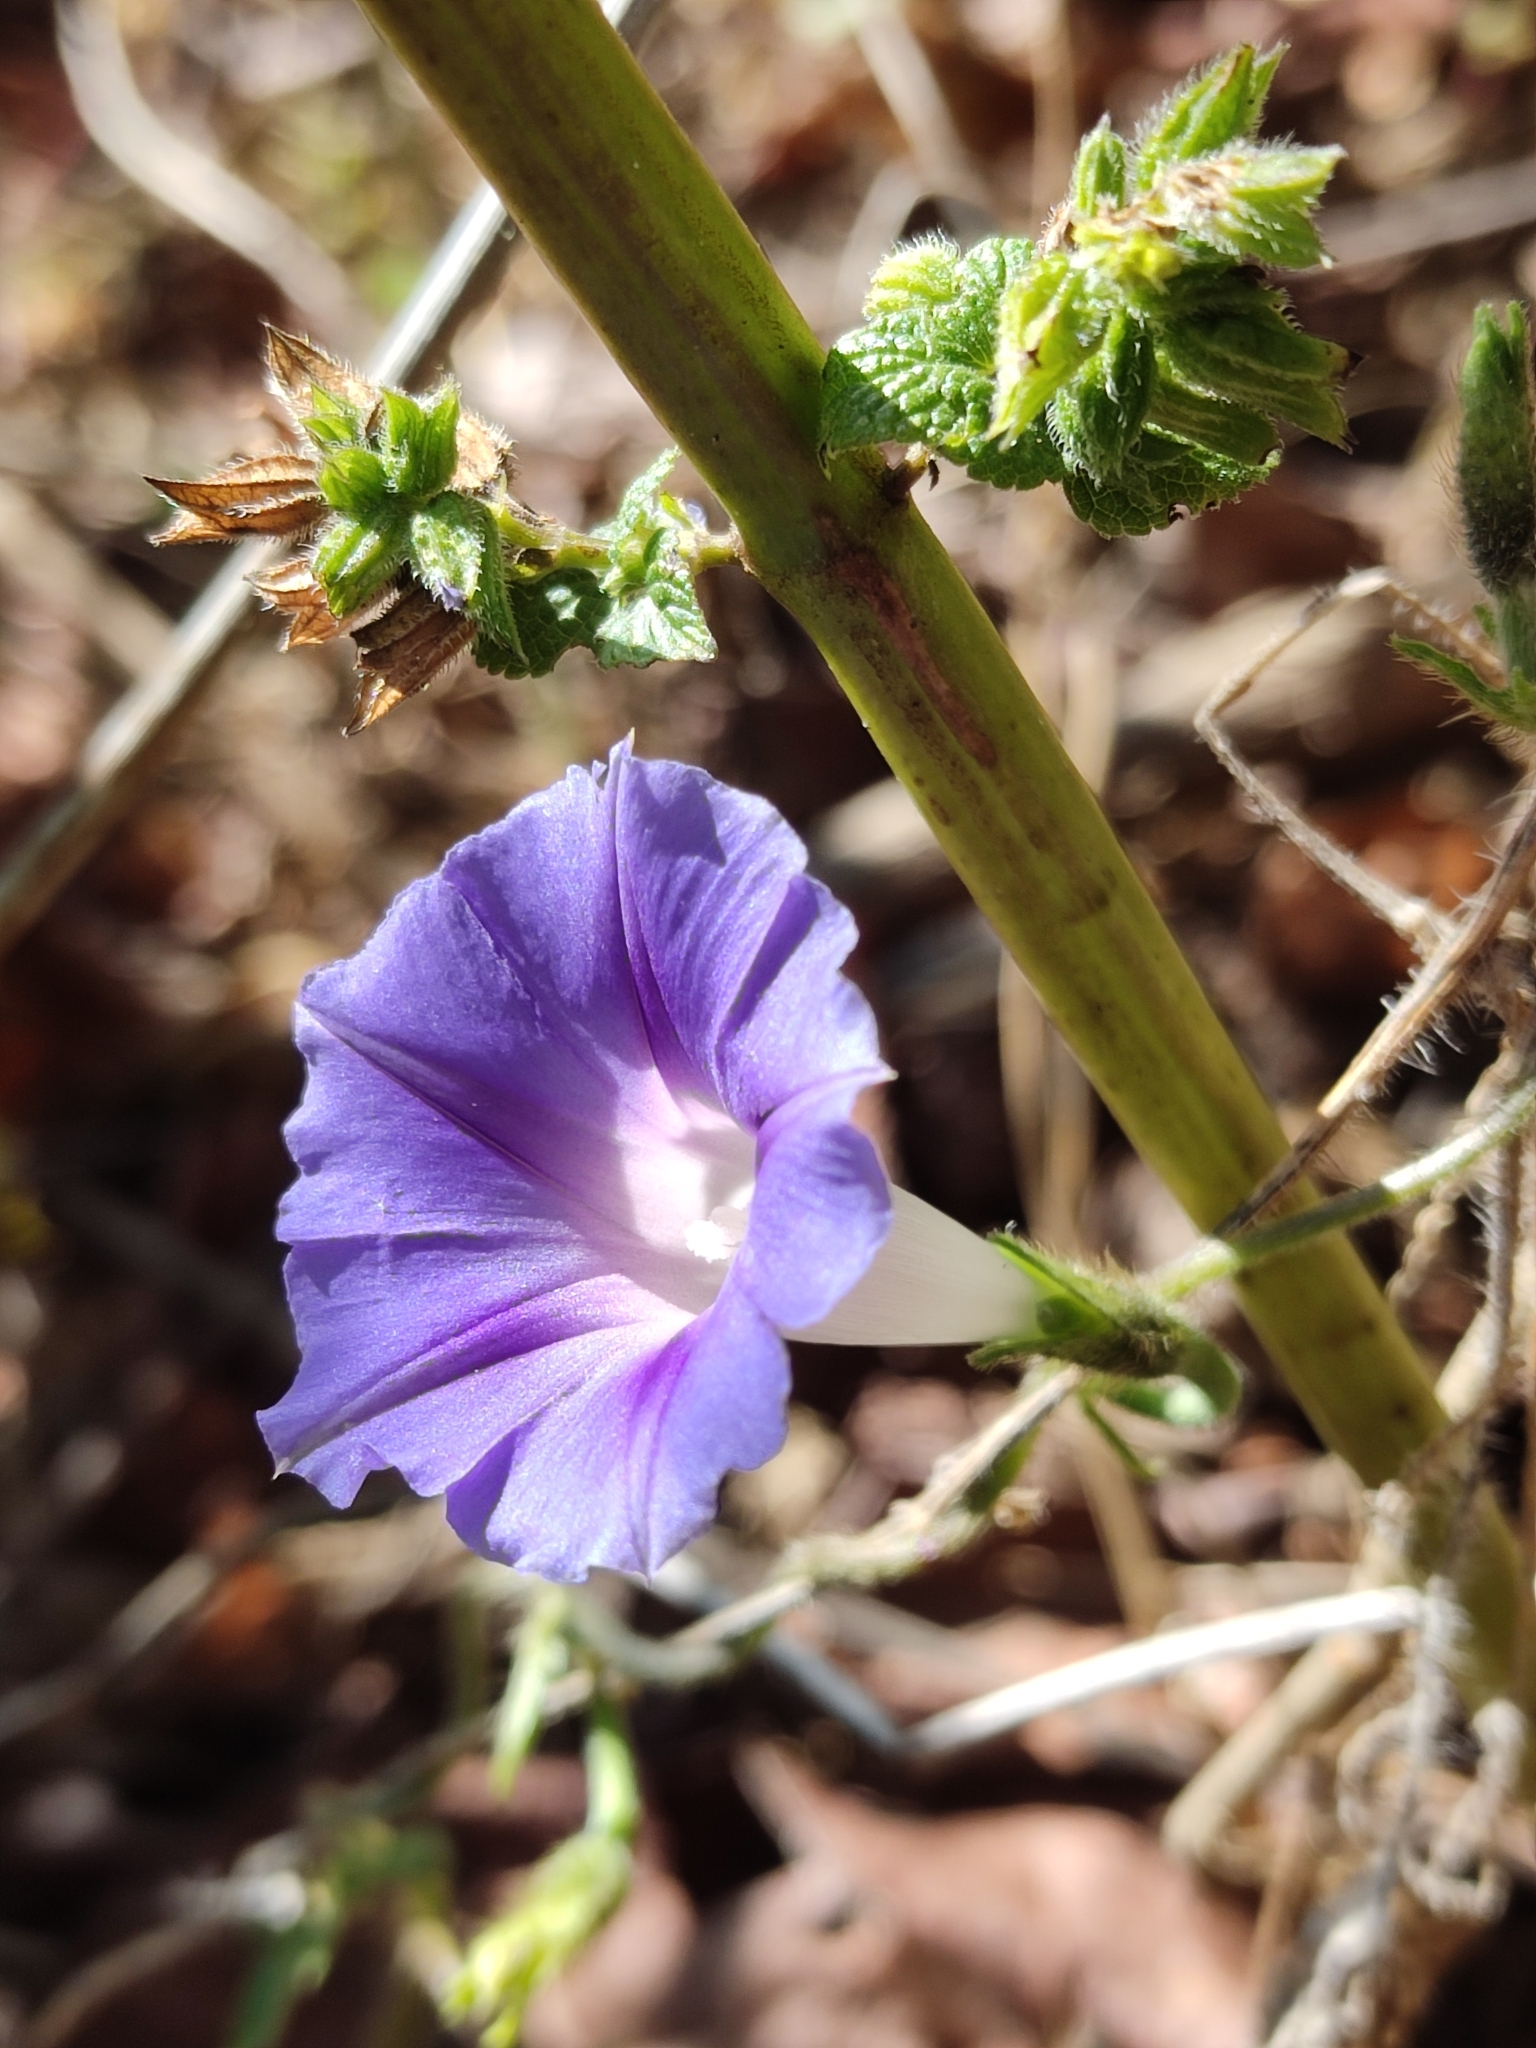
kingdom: Plantae
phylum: Tracheophyta
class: Magnoliopsida
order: Solanales
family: Convolvulaceae
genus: Ipomoea
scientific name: Ipomoea purpurea
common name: Common morning-glory
